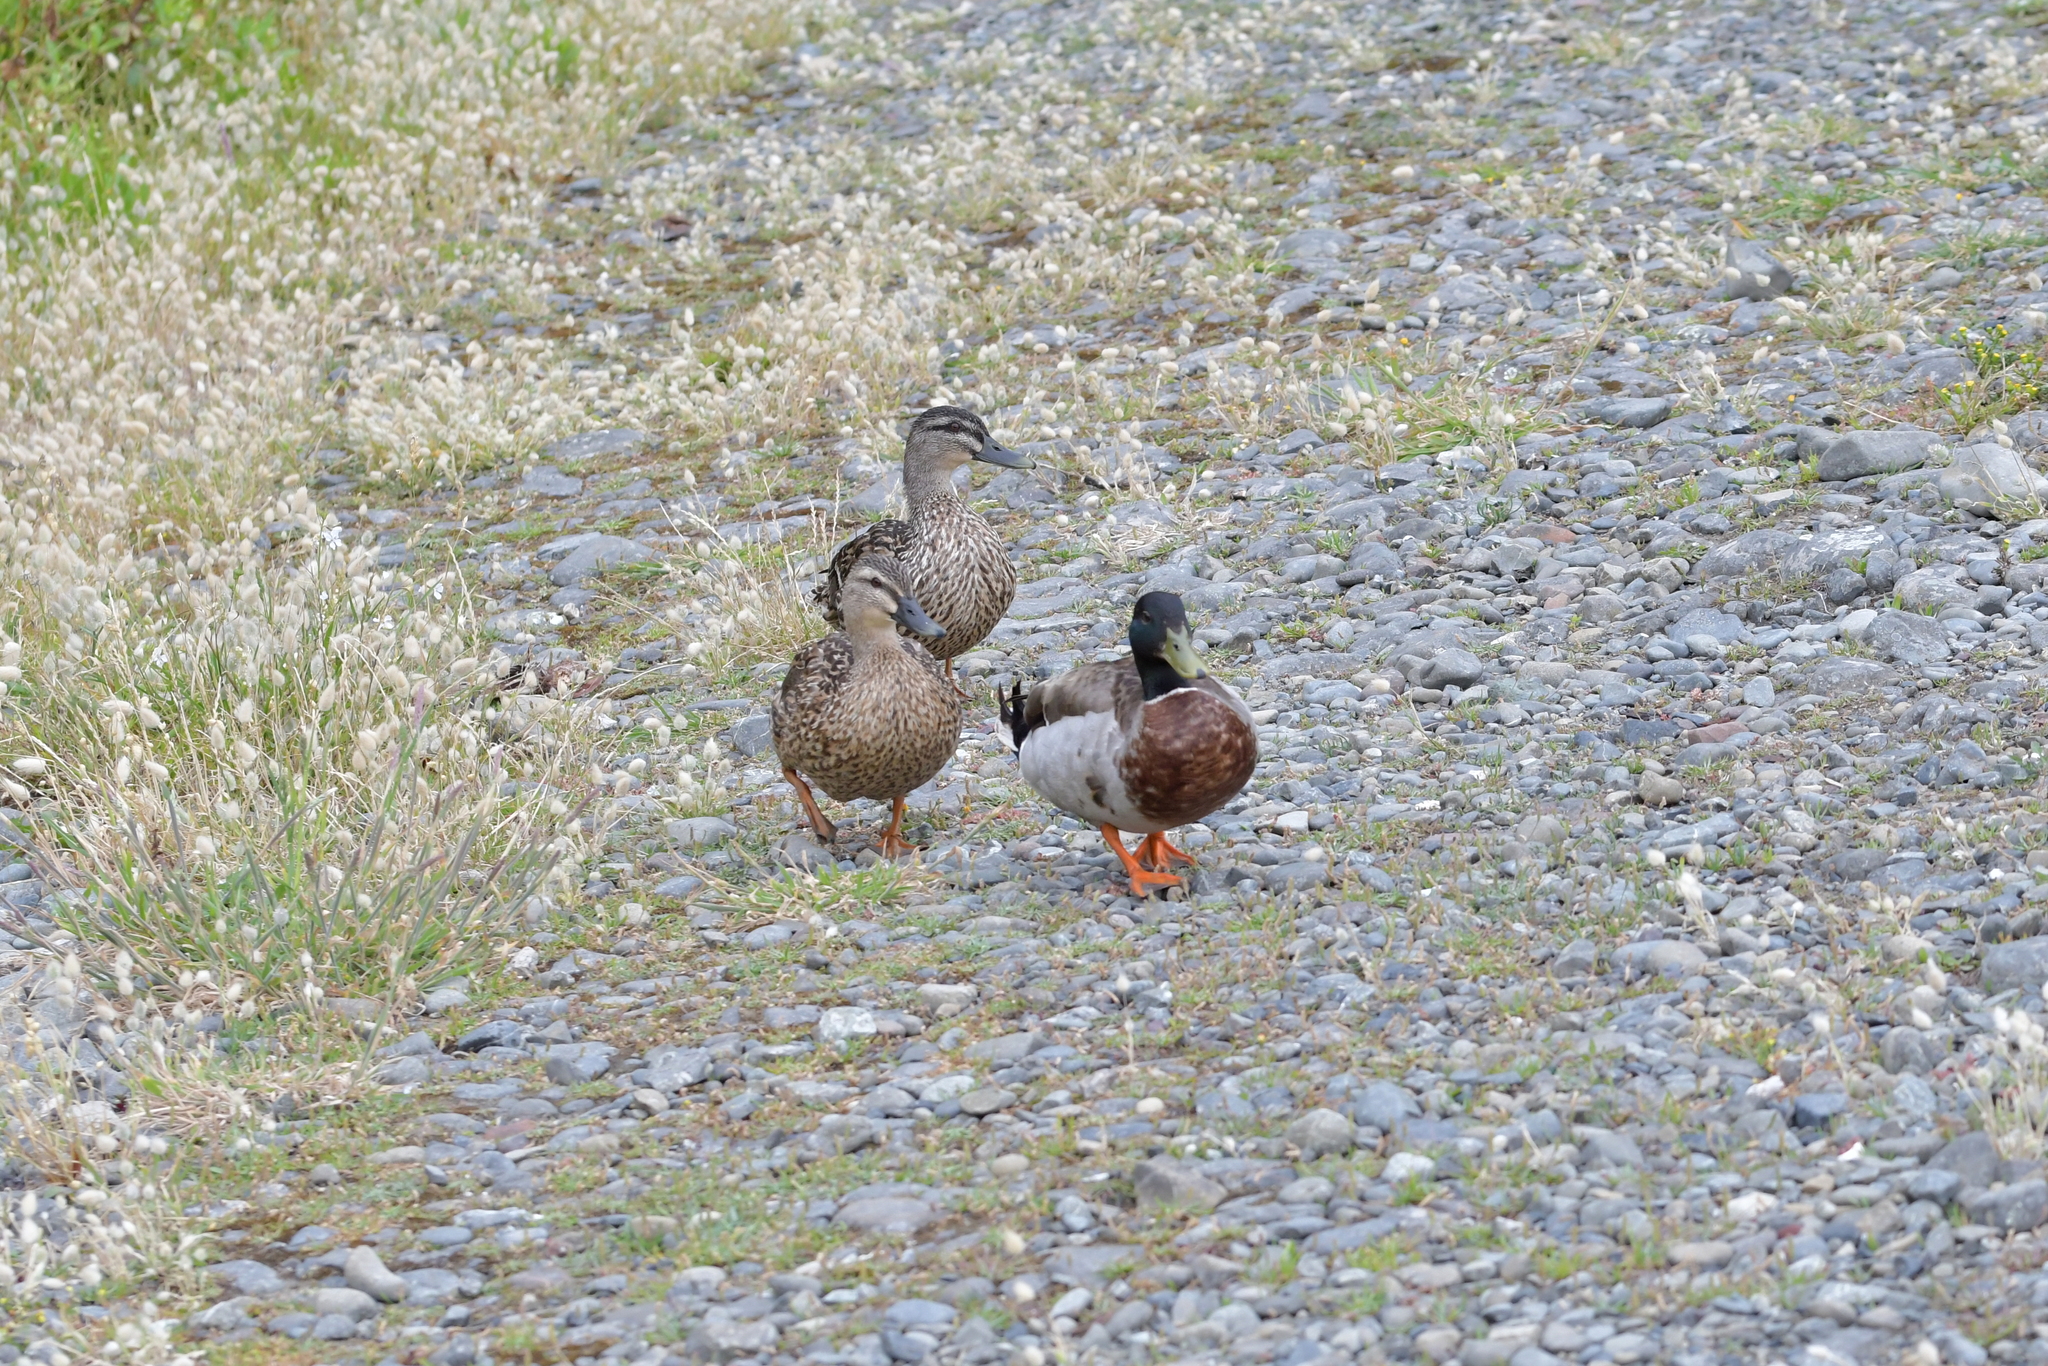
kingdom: Animalia
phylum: Chordata
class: Aves
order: Anseriformes
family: Anatidae
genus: Anas
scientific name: Anas
